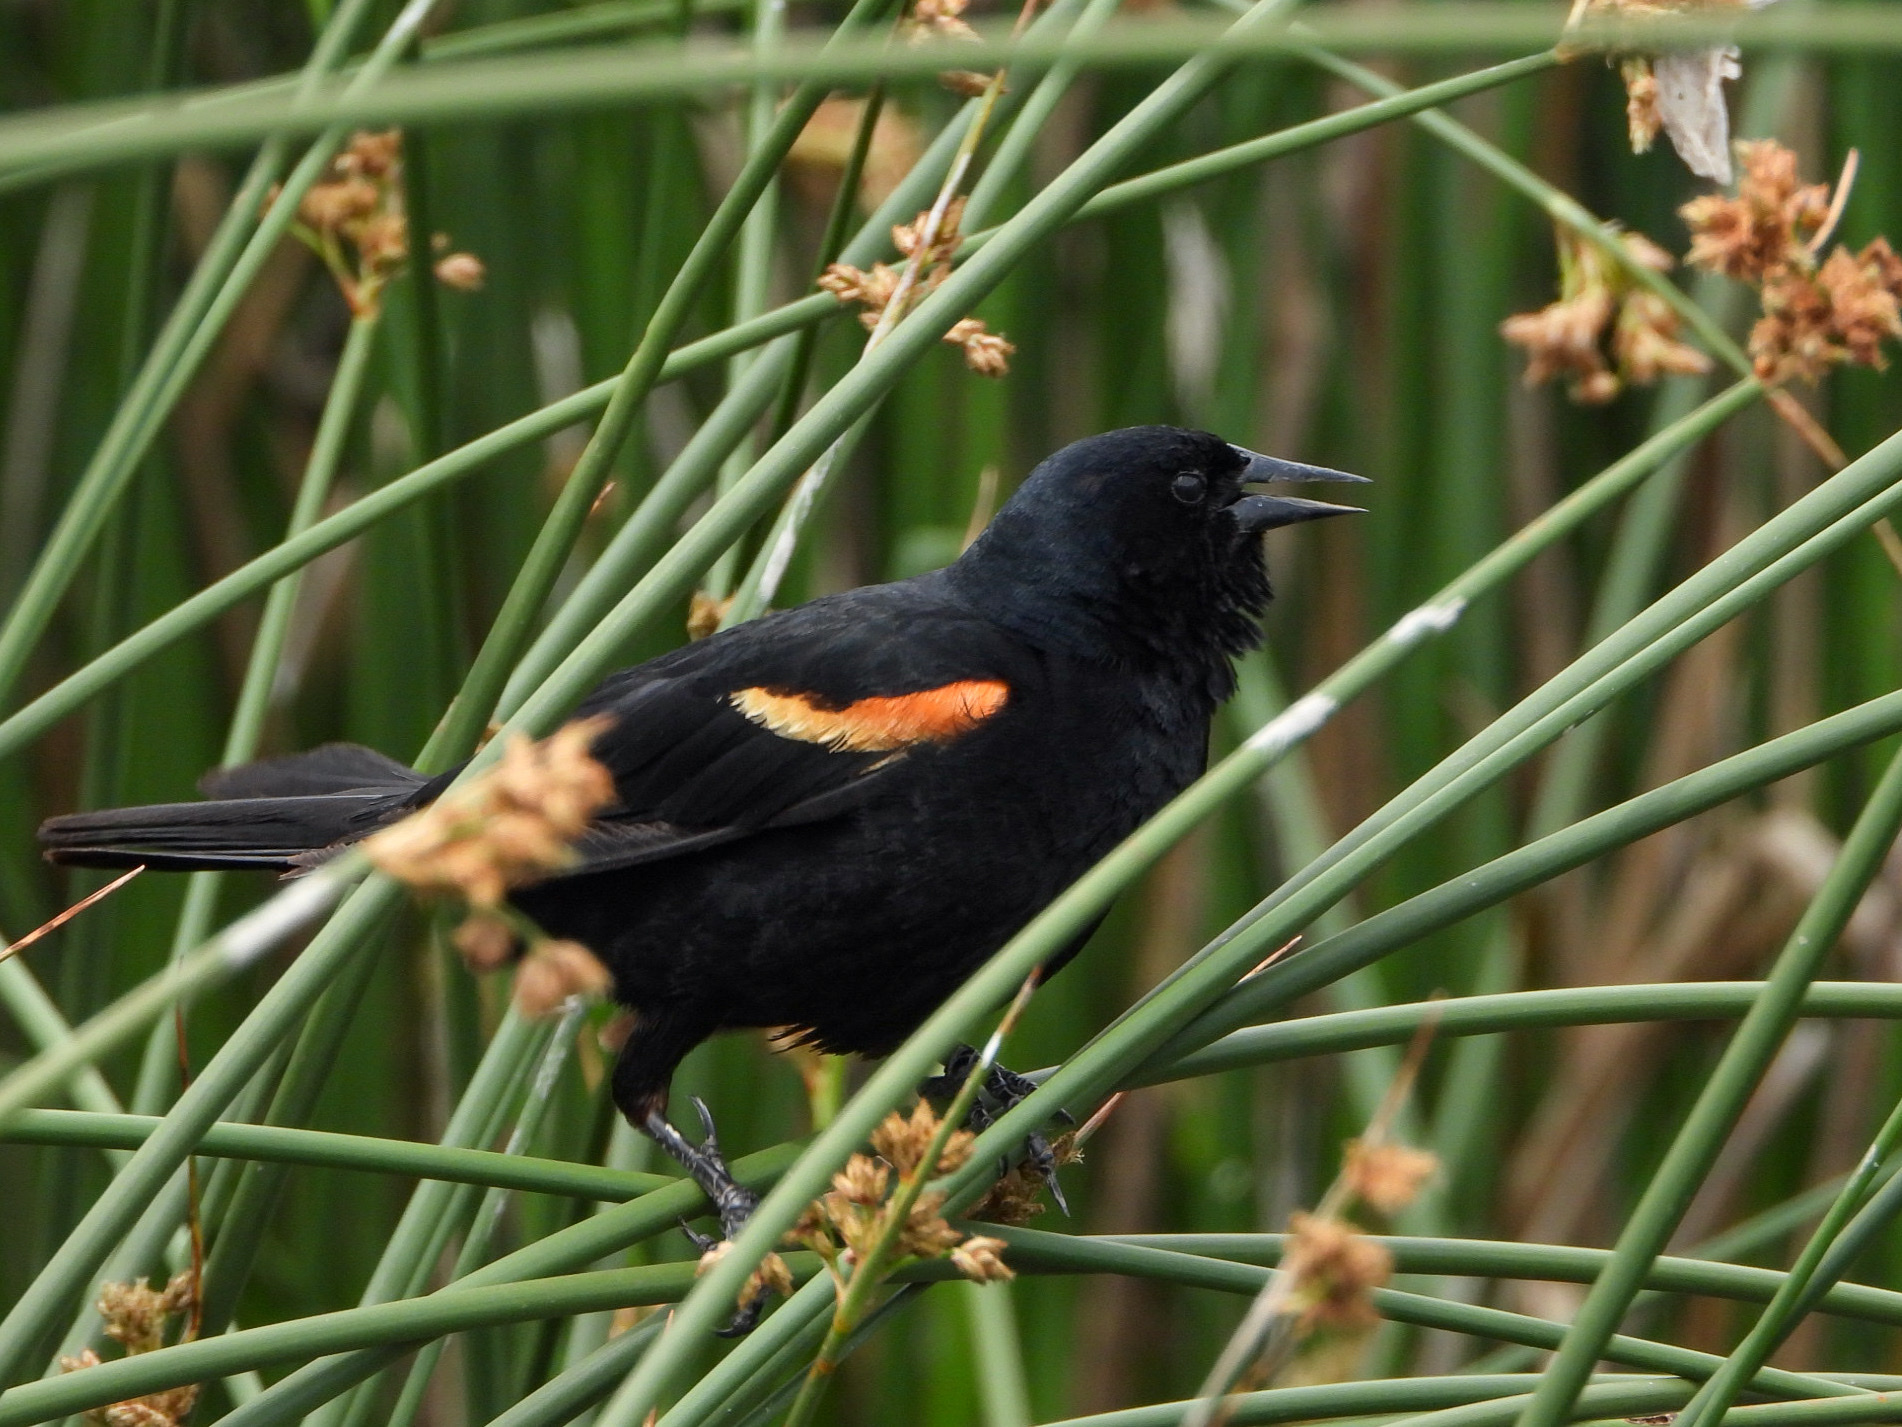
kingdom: Animalia
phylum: Chordata
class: Aves
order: Passeriformes
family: Icteridae
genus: Agelaius
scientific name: Agelaius phoeniceus
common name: Red-winged blackbird
